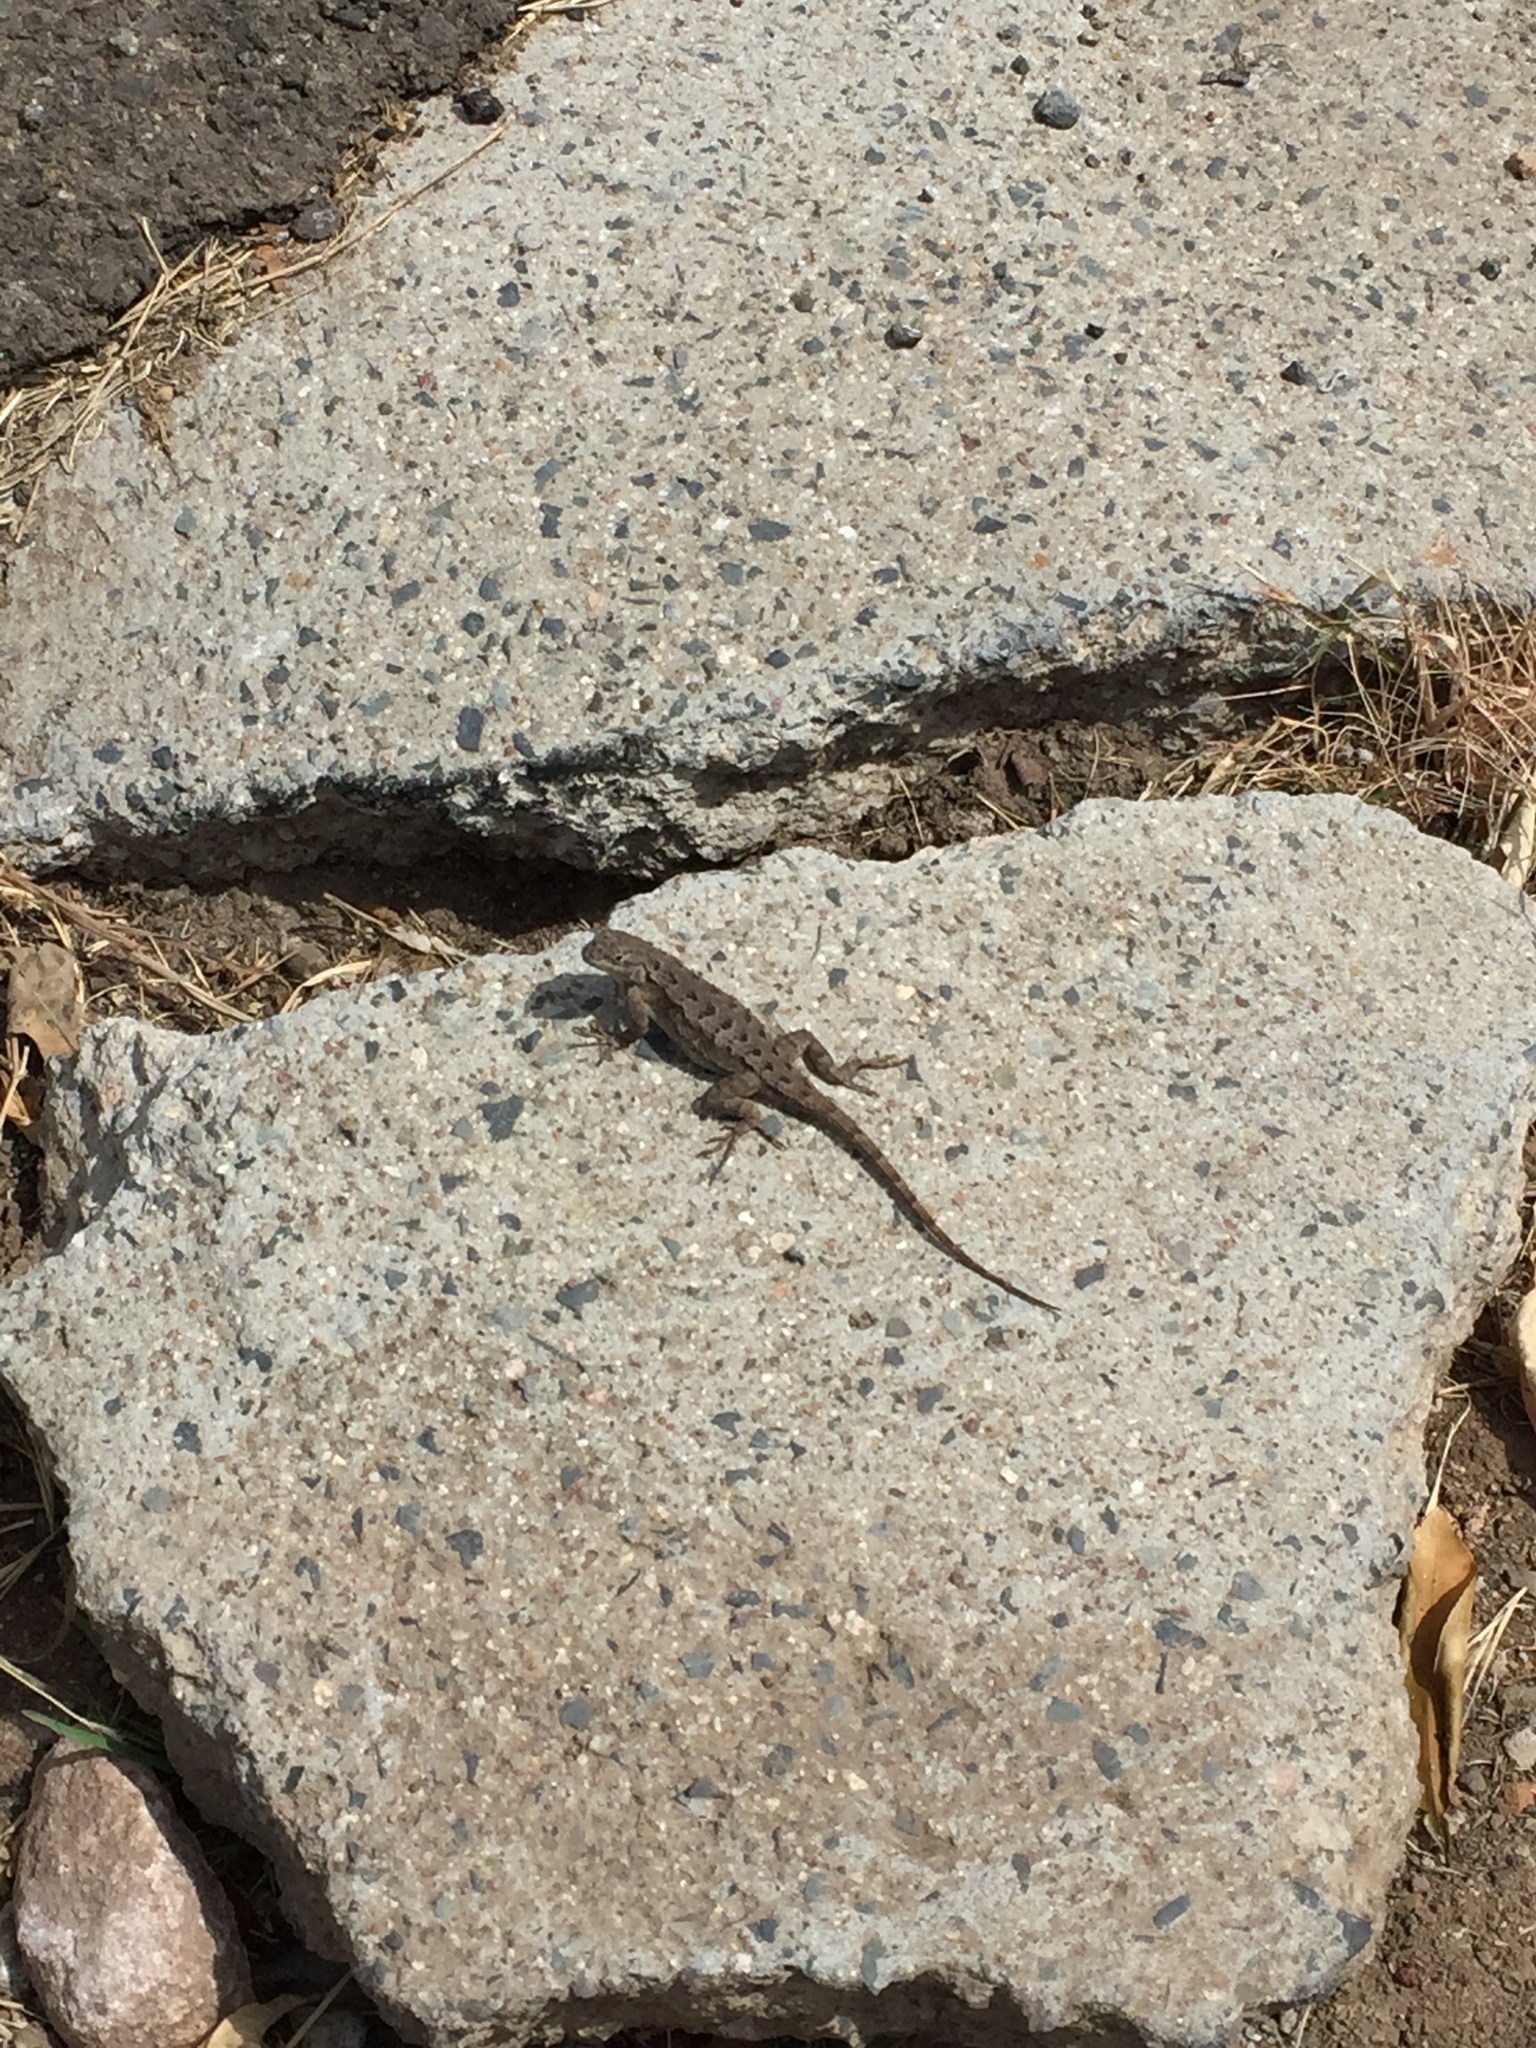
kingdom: Animalia
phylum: Chordata
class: Squamata
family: Phrynosomatidae
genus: Sceloporus
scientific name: Sceloporus occidentalis
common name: Western fence lizard
